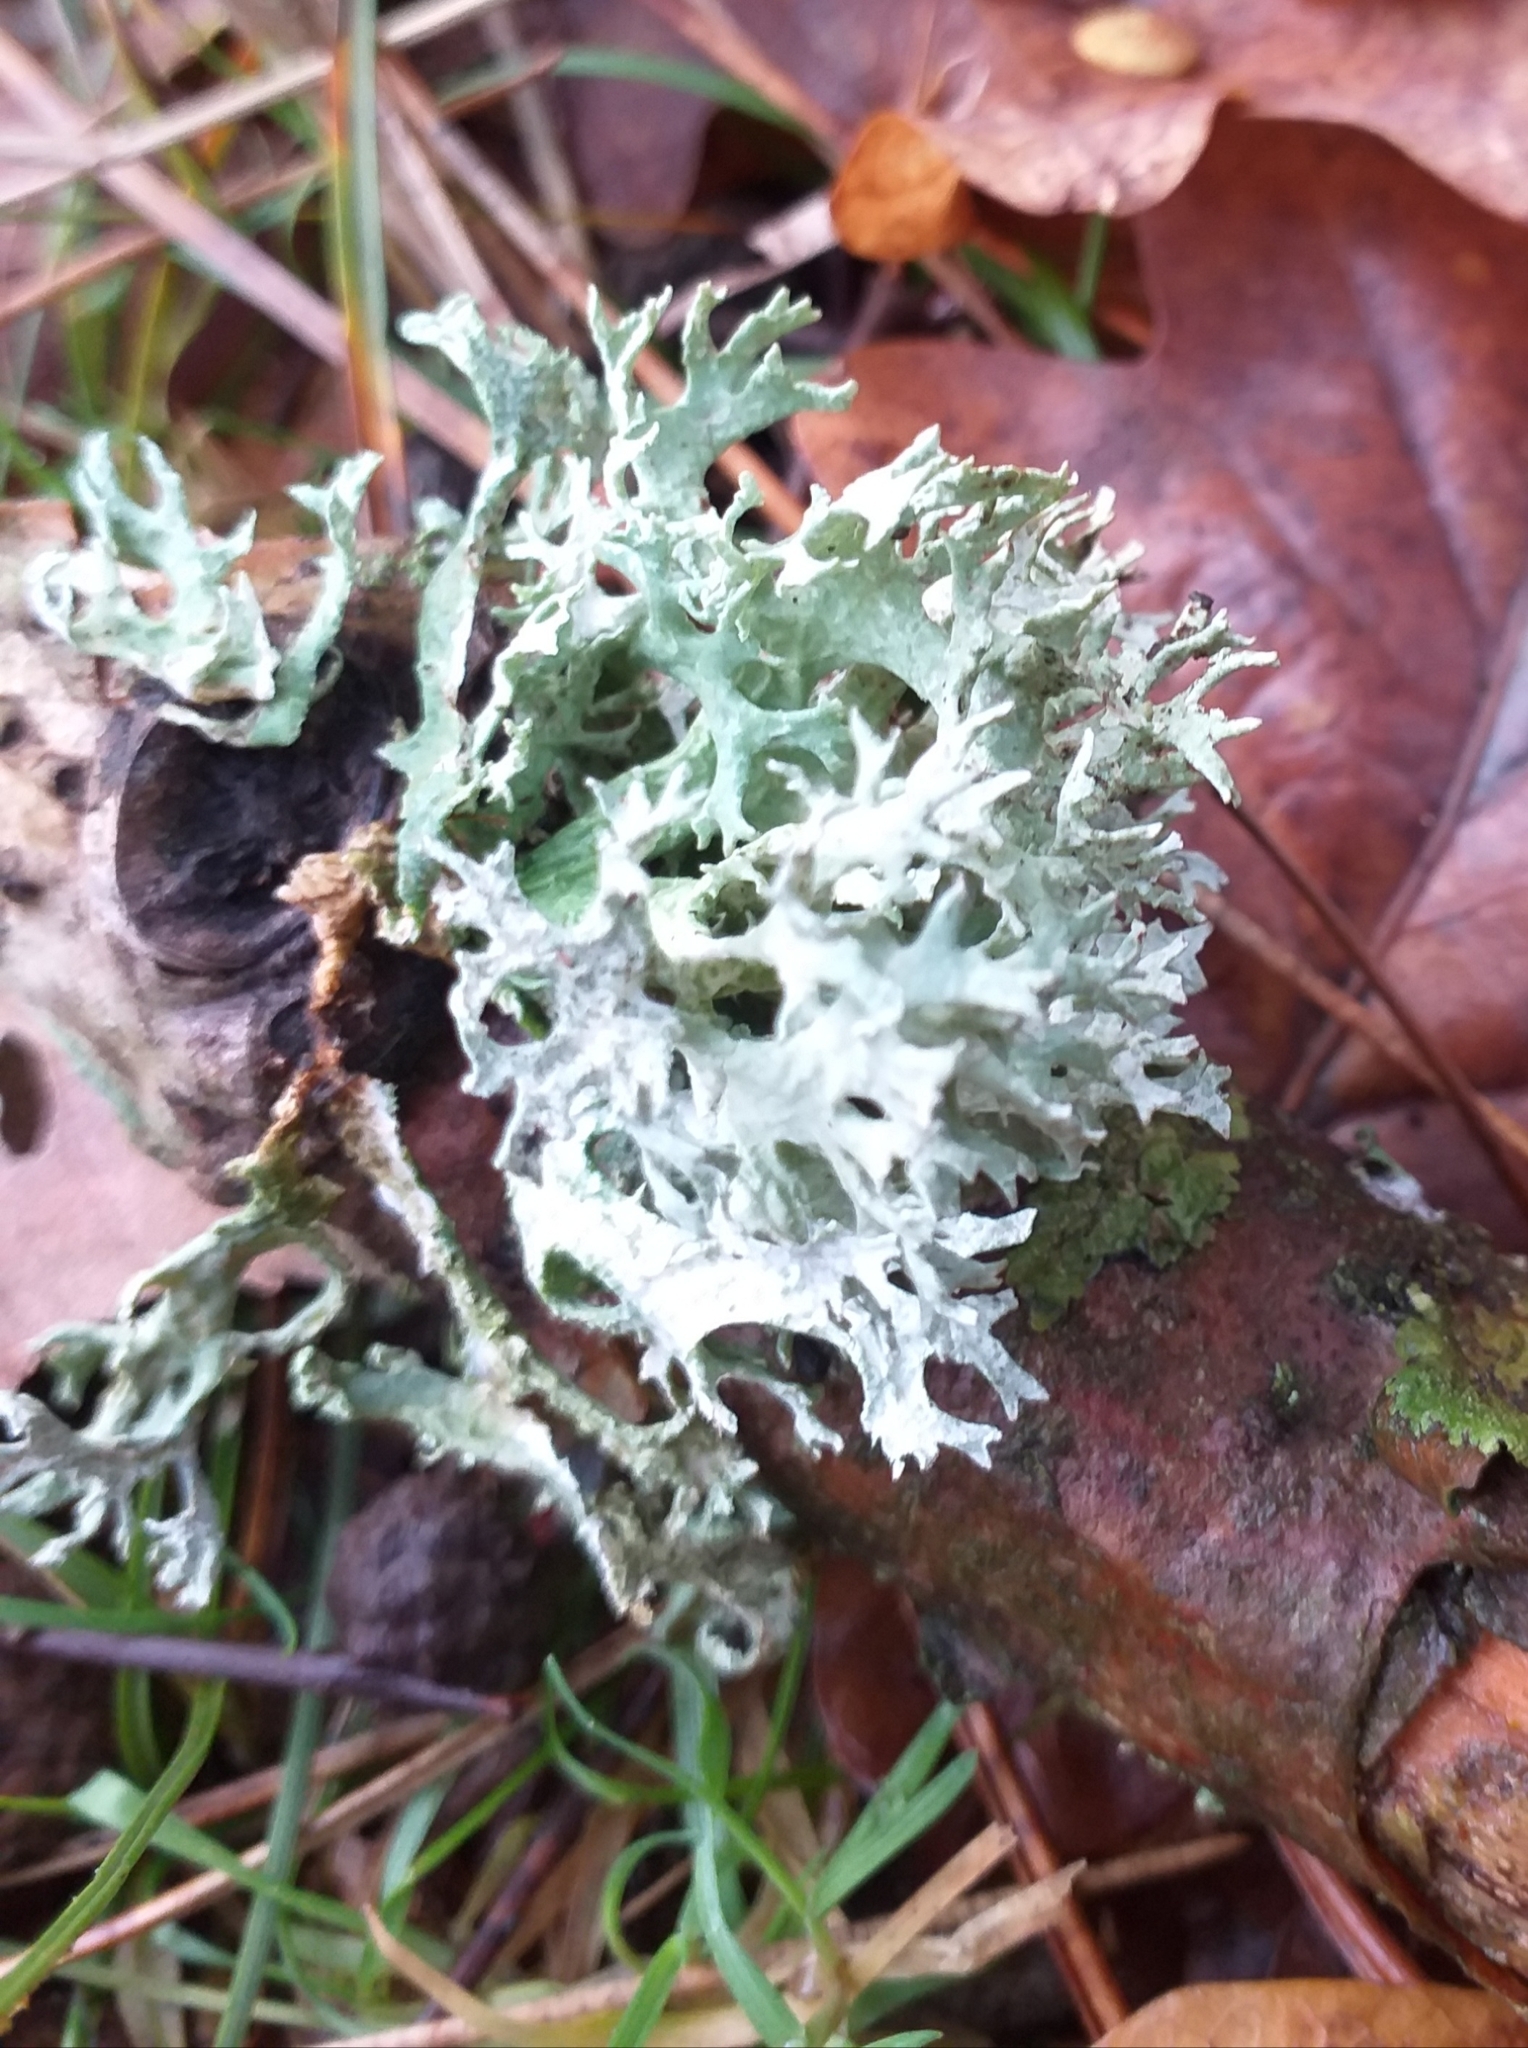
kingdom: Fungi
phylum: Ascomycota
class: Lecanoromycetes
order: Lecanorales
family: Parmeliaceae
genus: Evernia
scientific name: Evernia prunastri
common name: Oak moss
